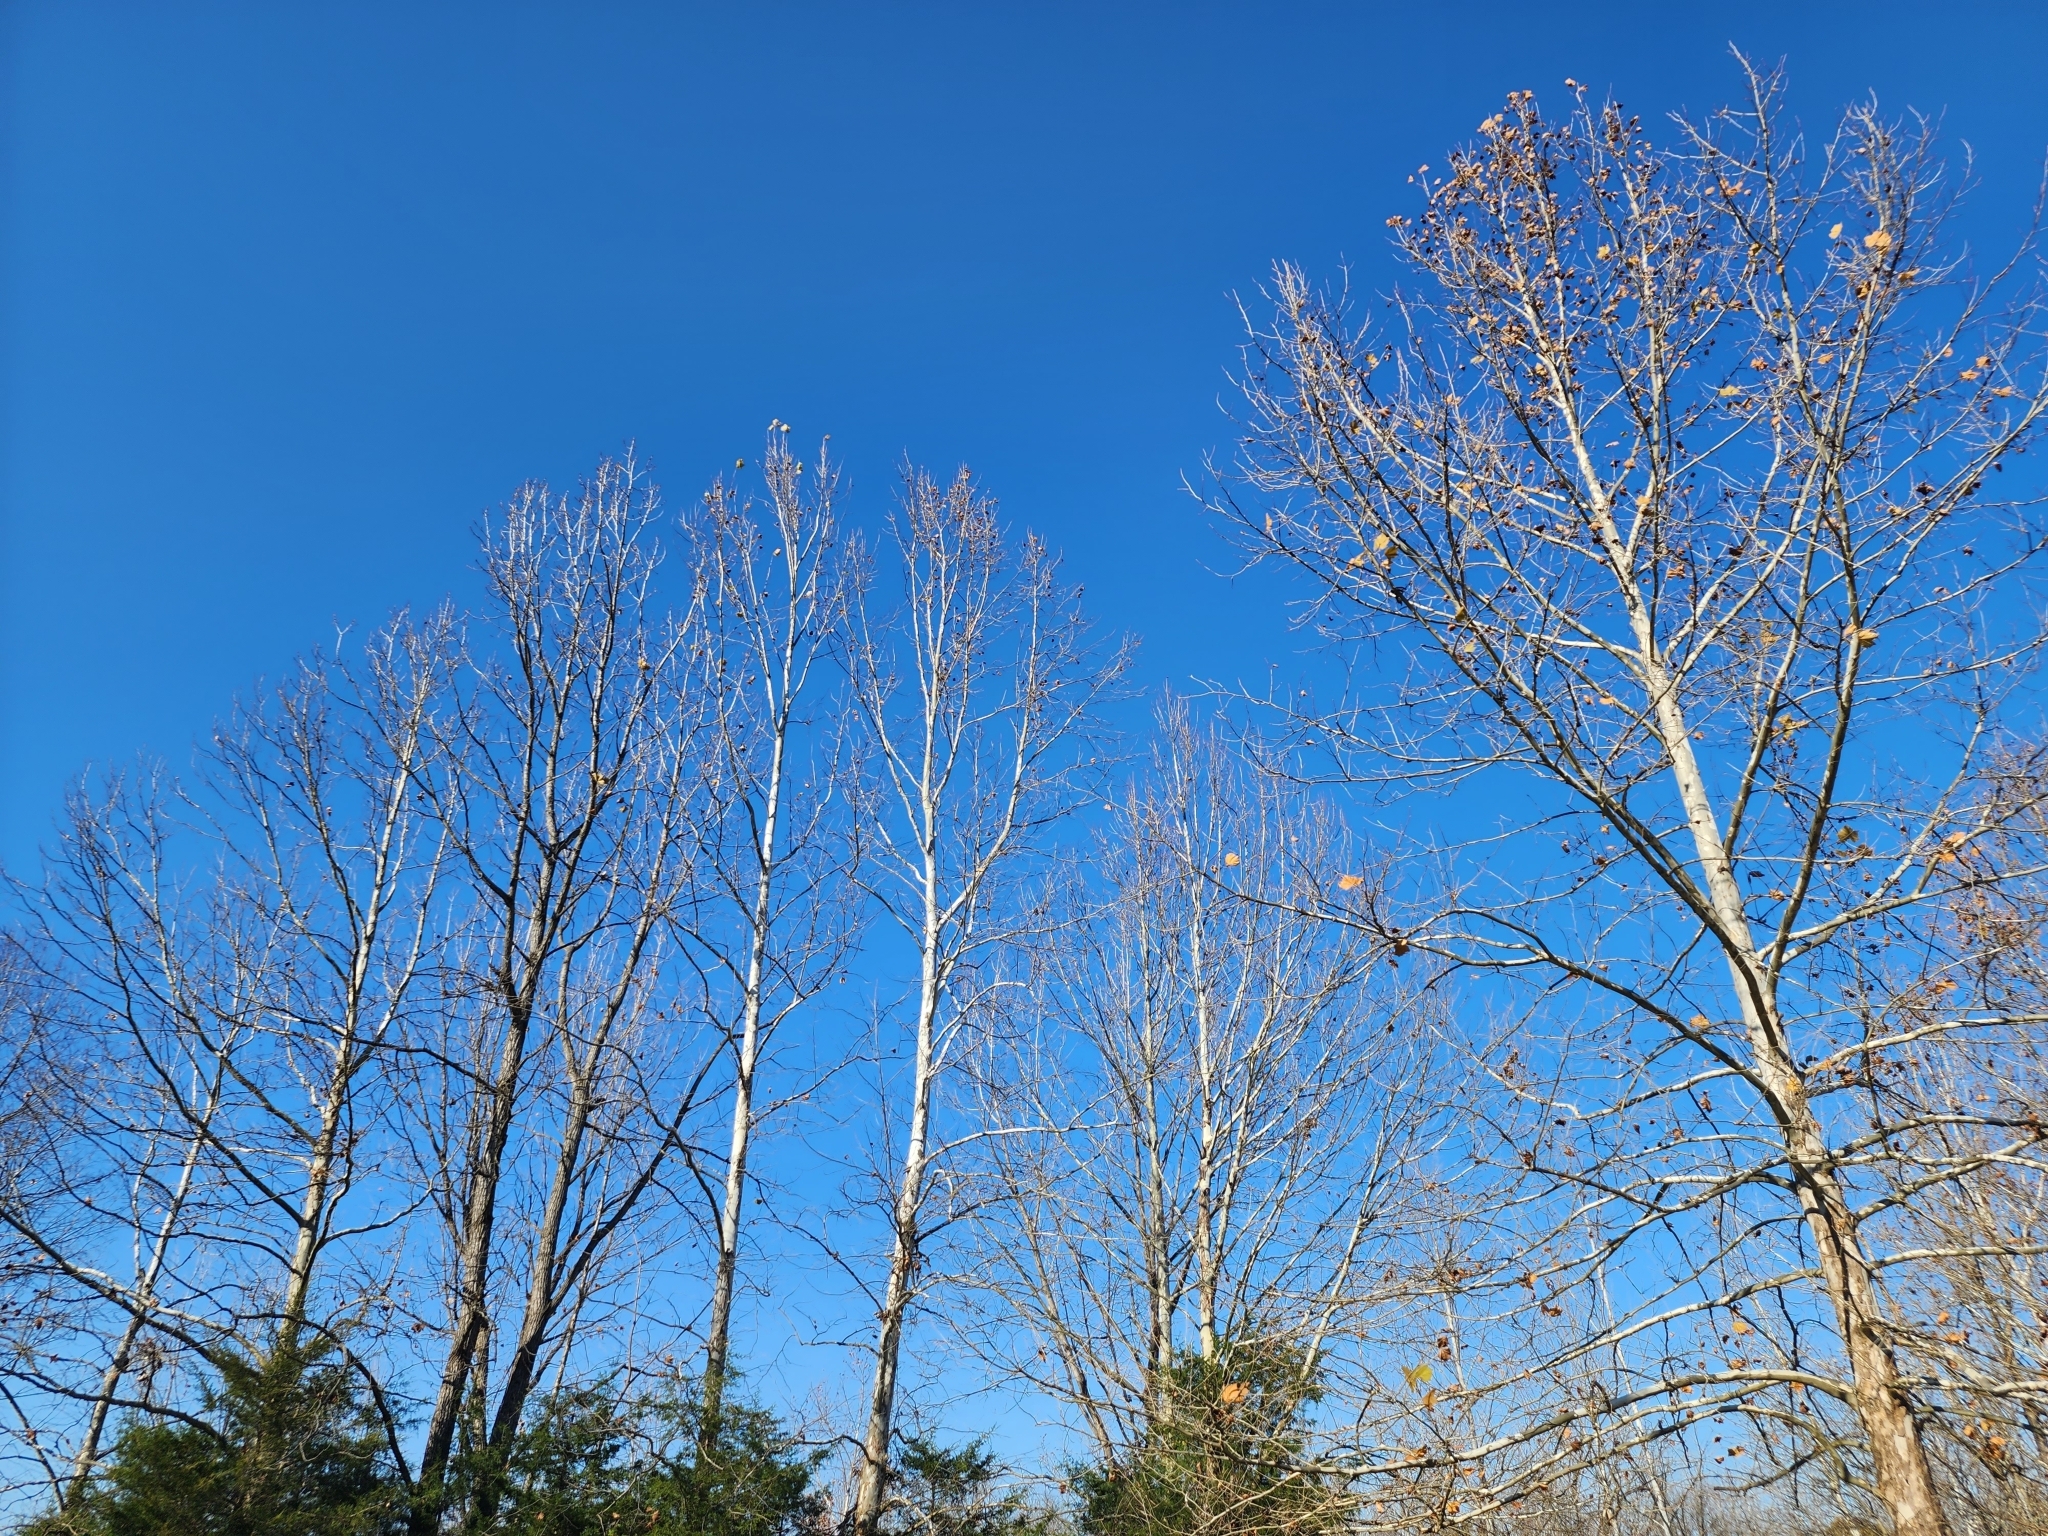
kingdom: Plantae
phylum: Tracheophyta
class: Magnoliopsida
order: Proteales
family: Platanaceae
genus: Platanus
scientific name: Platanus occidentalis
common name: American sycamore
